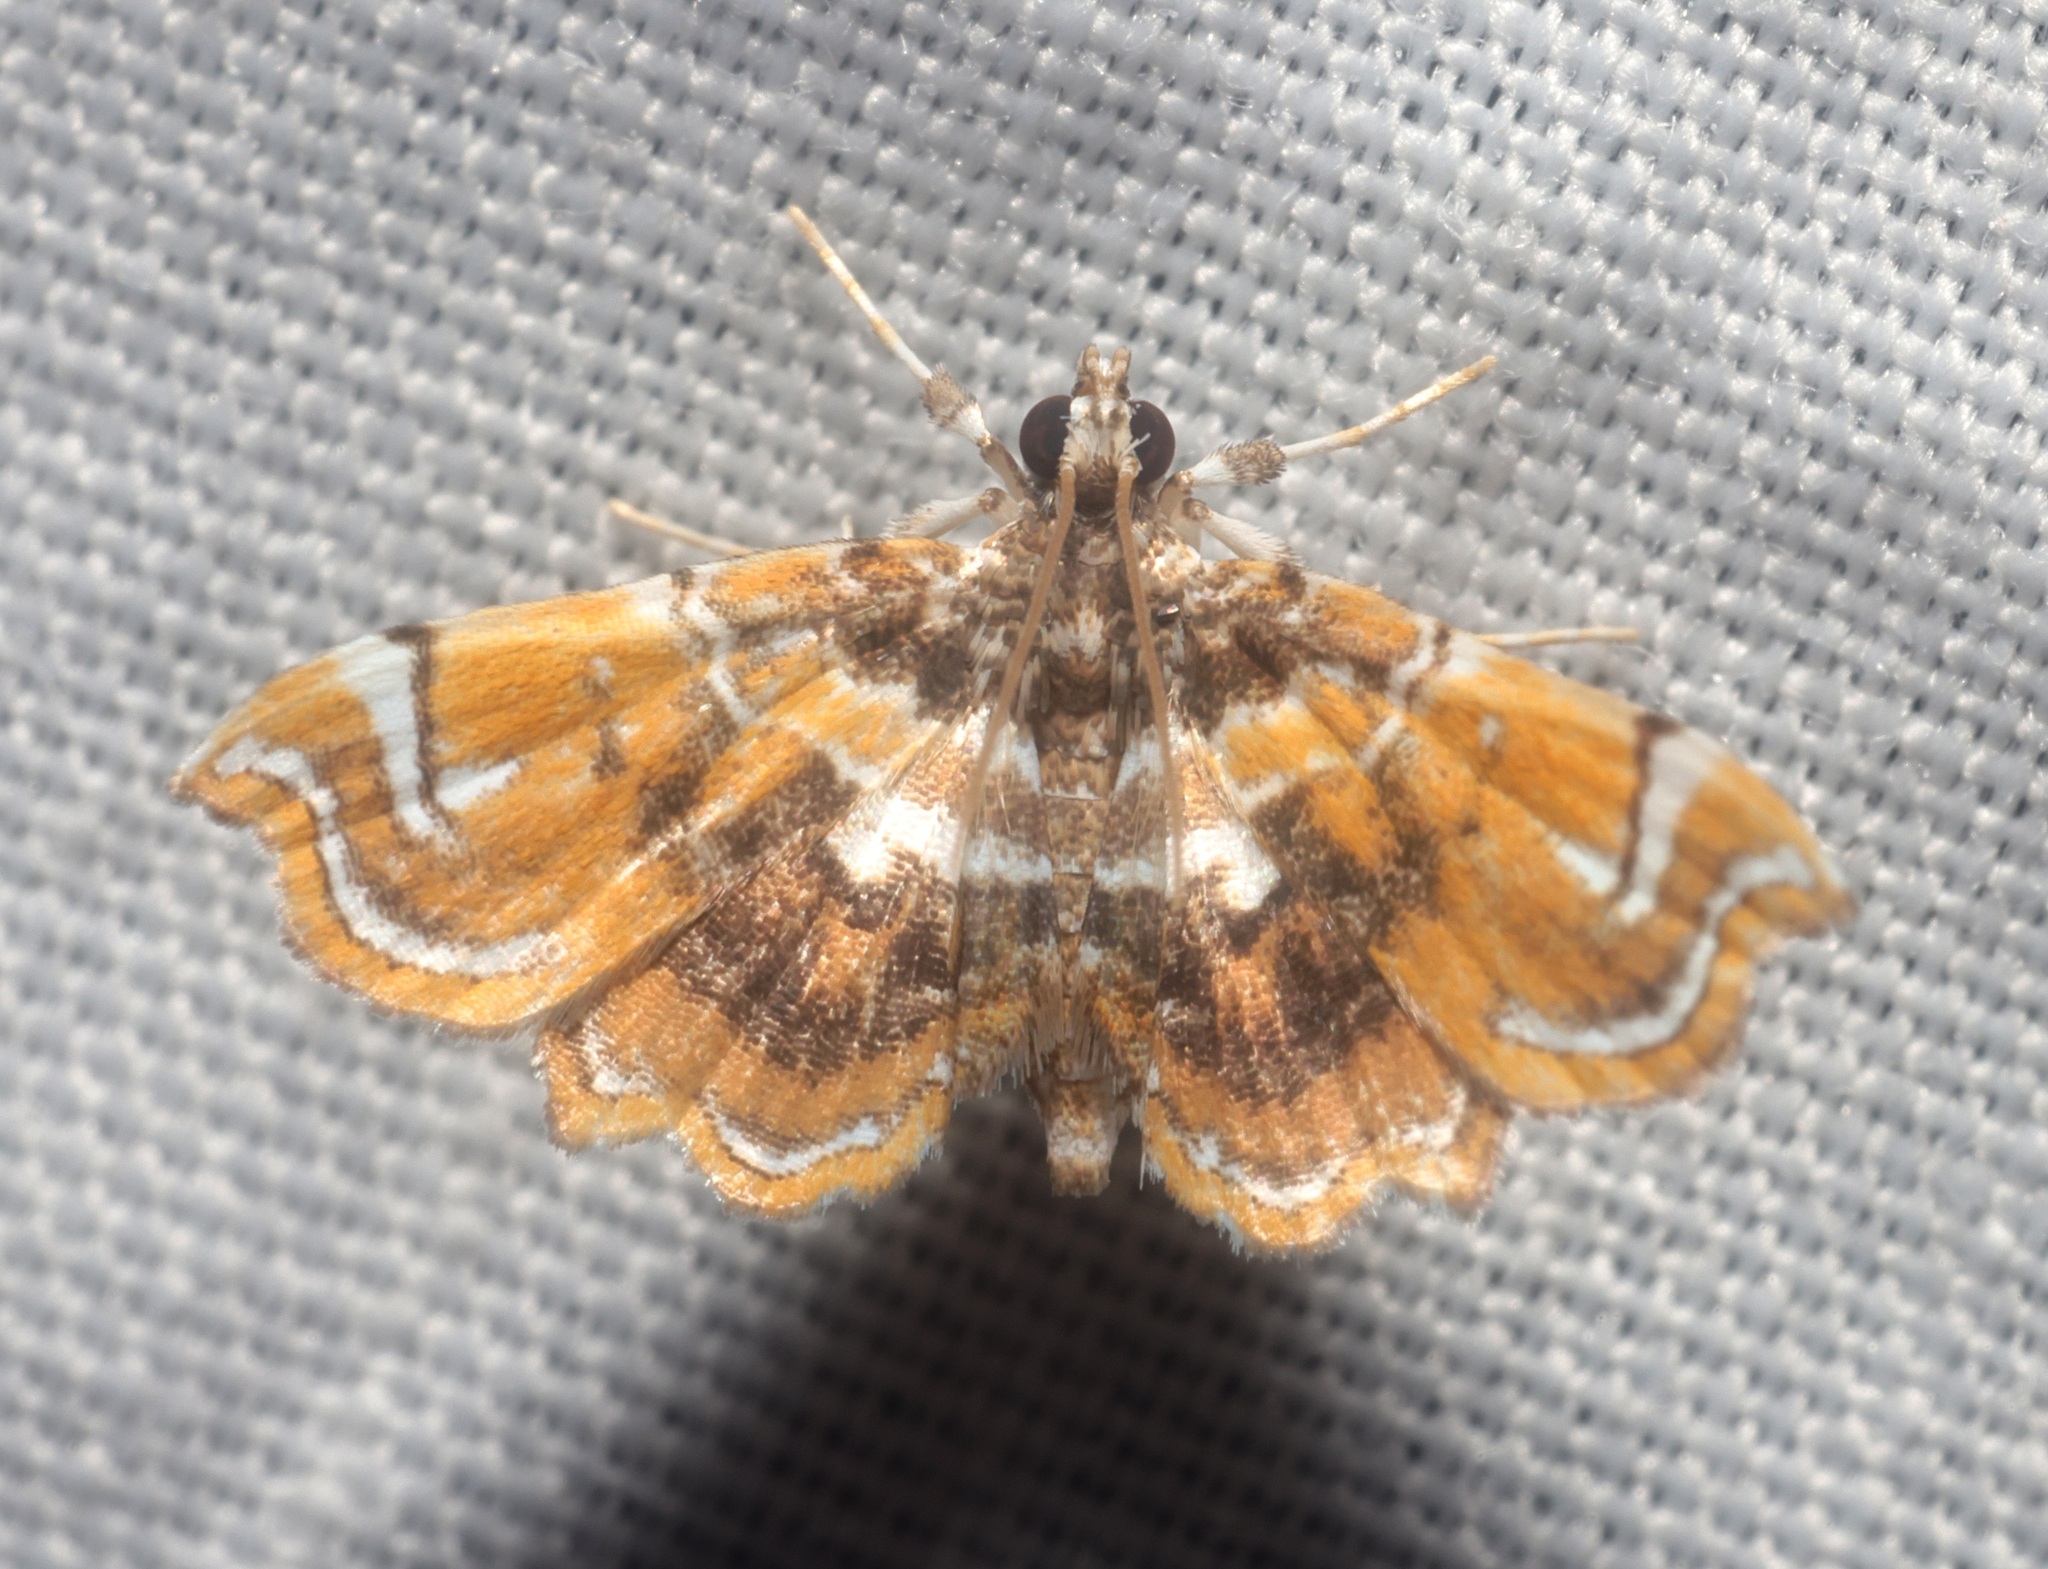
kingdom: Animalia
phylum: Arthropoda
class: Insecta
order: Lepidoptera
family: Pyralidae
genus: Musotima
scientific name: Musotima suffusalis
